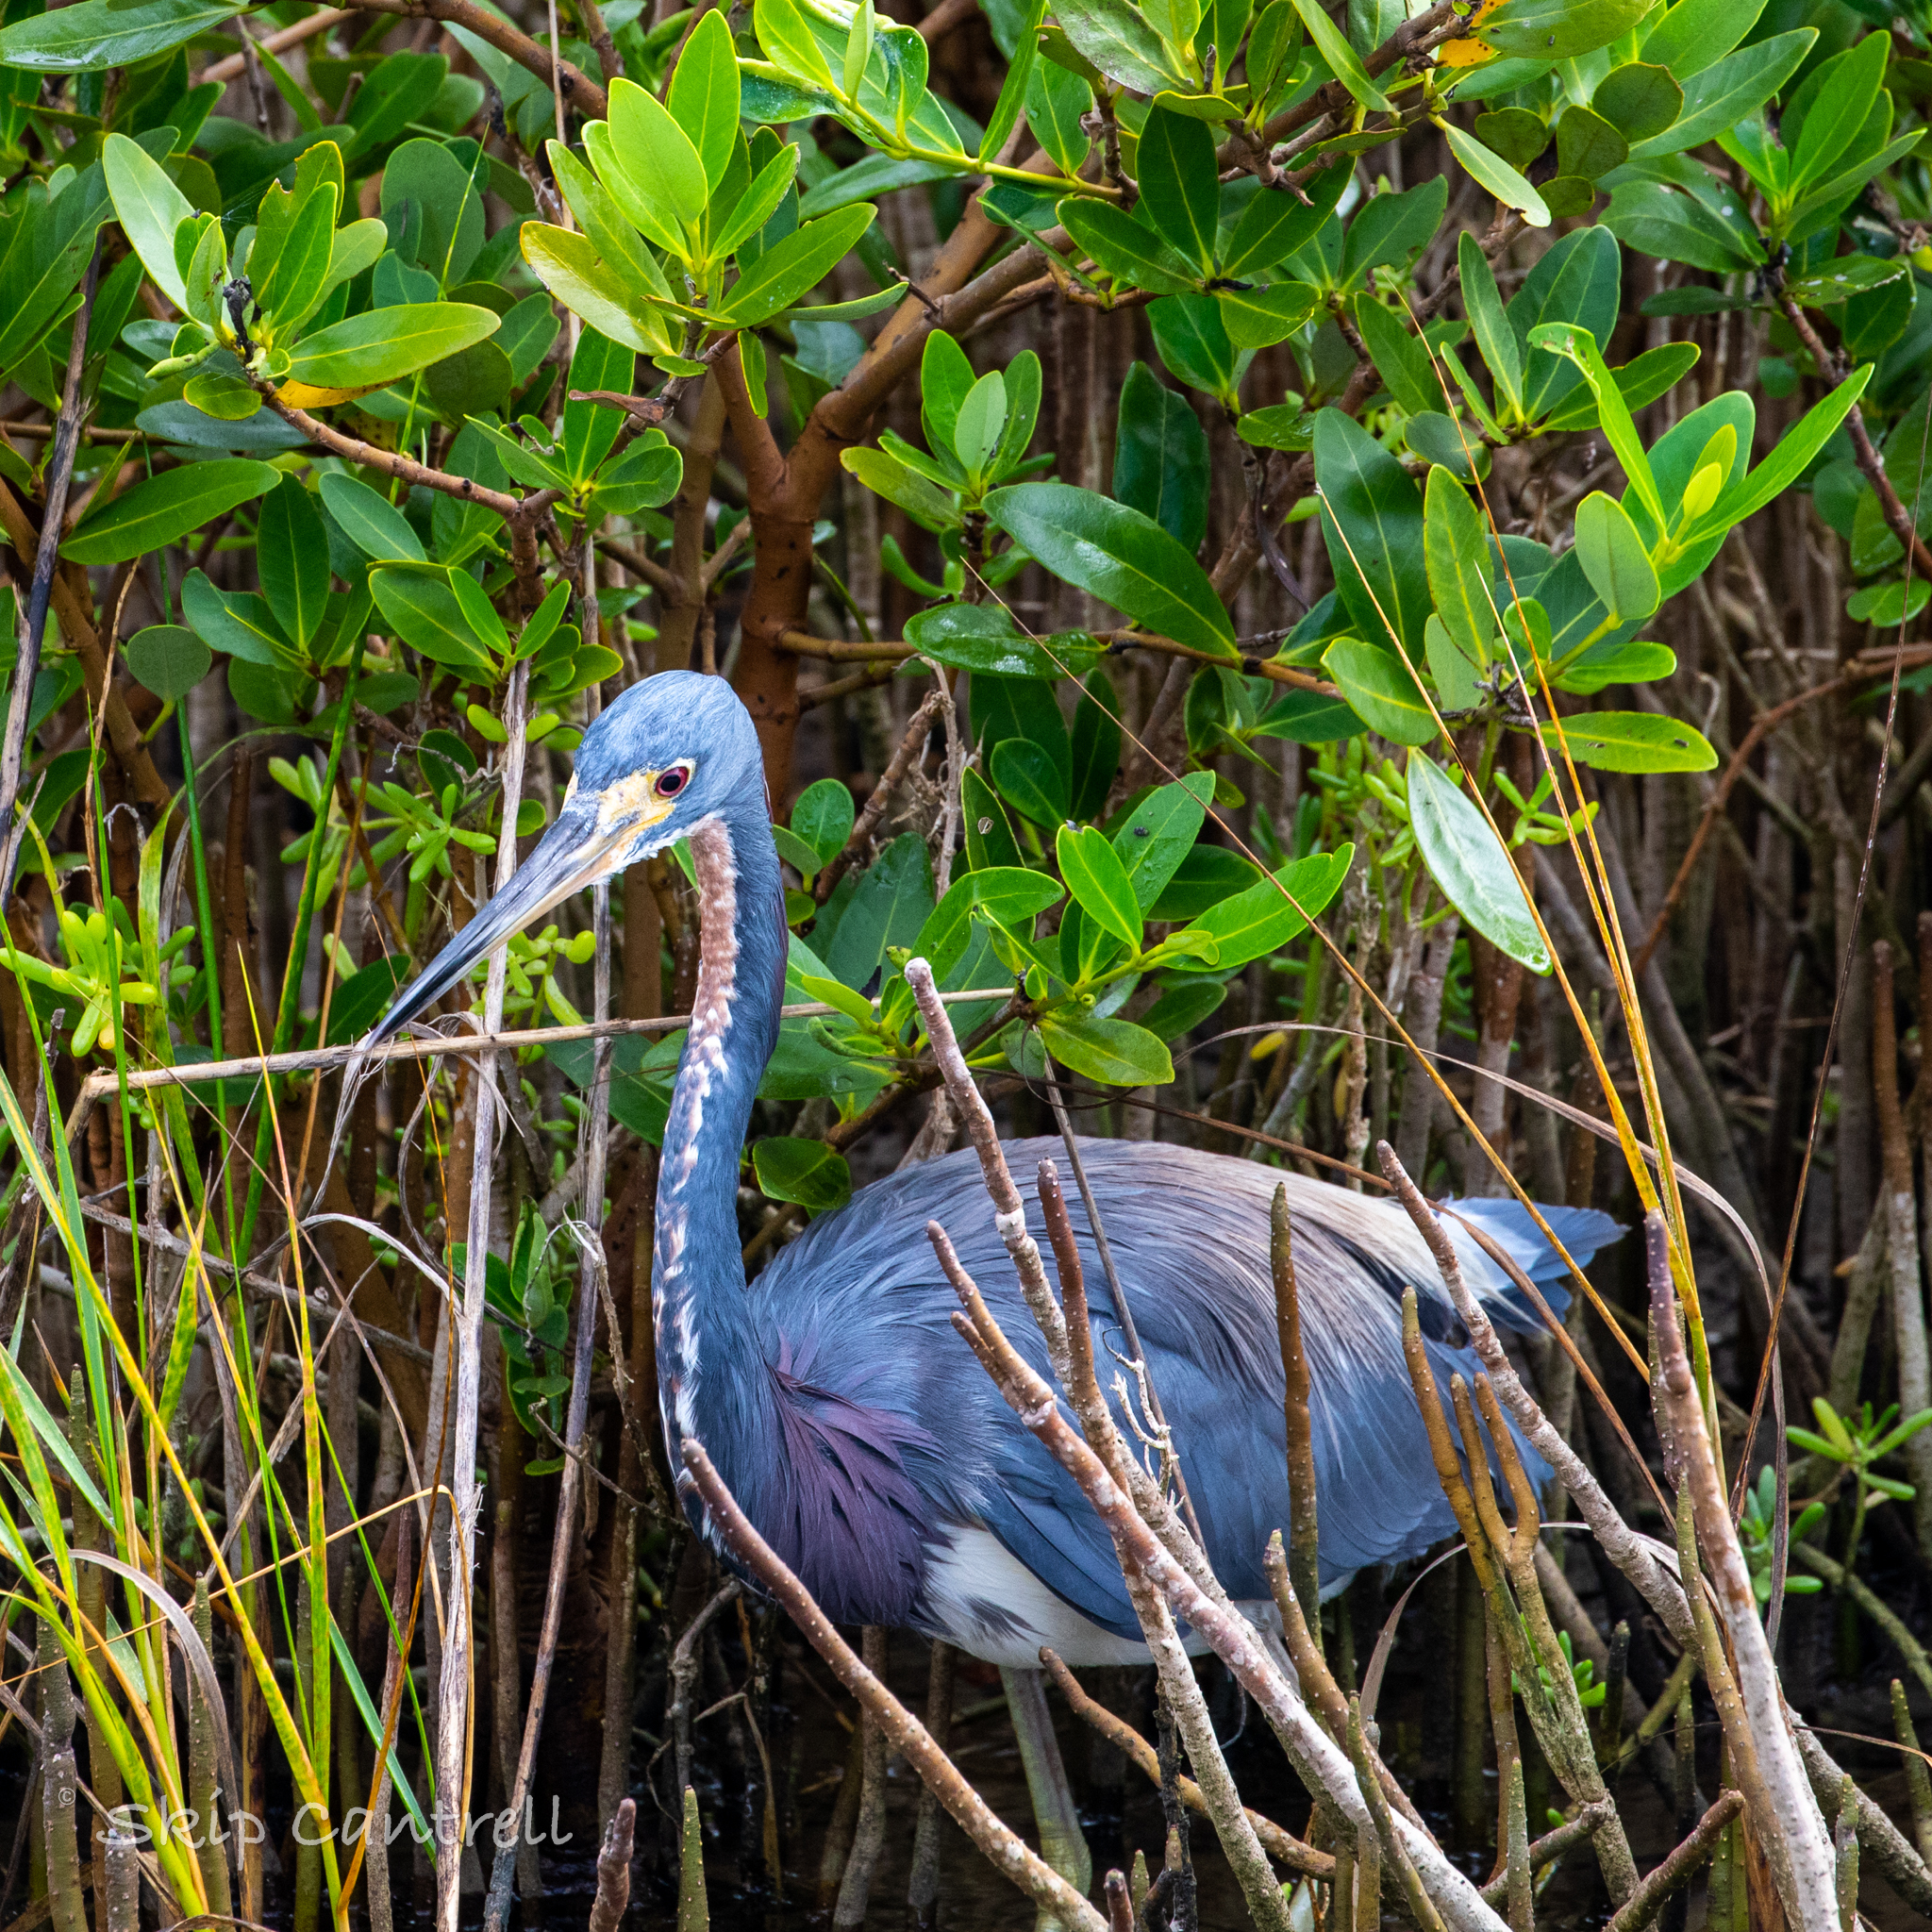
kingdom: Animalia
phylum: Chordata
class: Aves
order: Pelecaniformes
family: Ardeidae
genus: Egretta
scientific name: Egretta tricolor
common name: Tricolored heron
